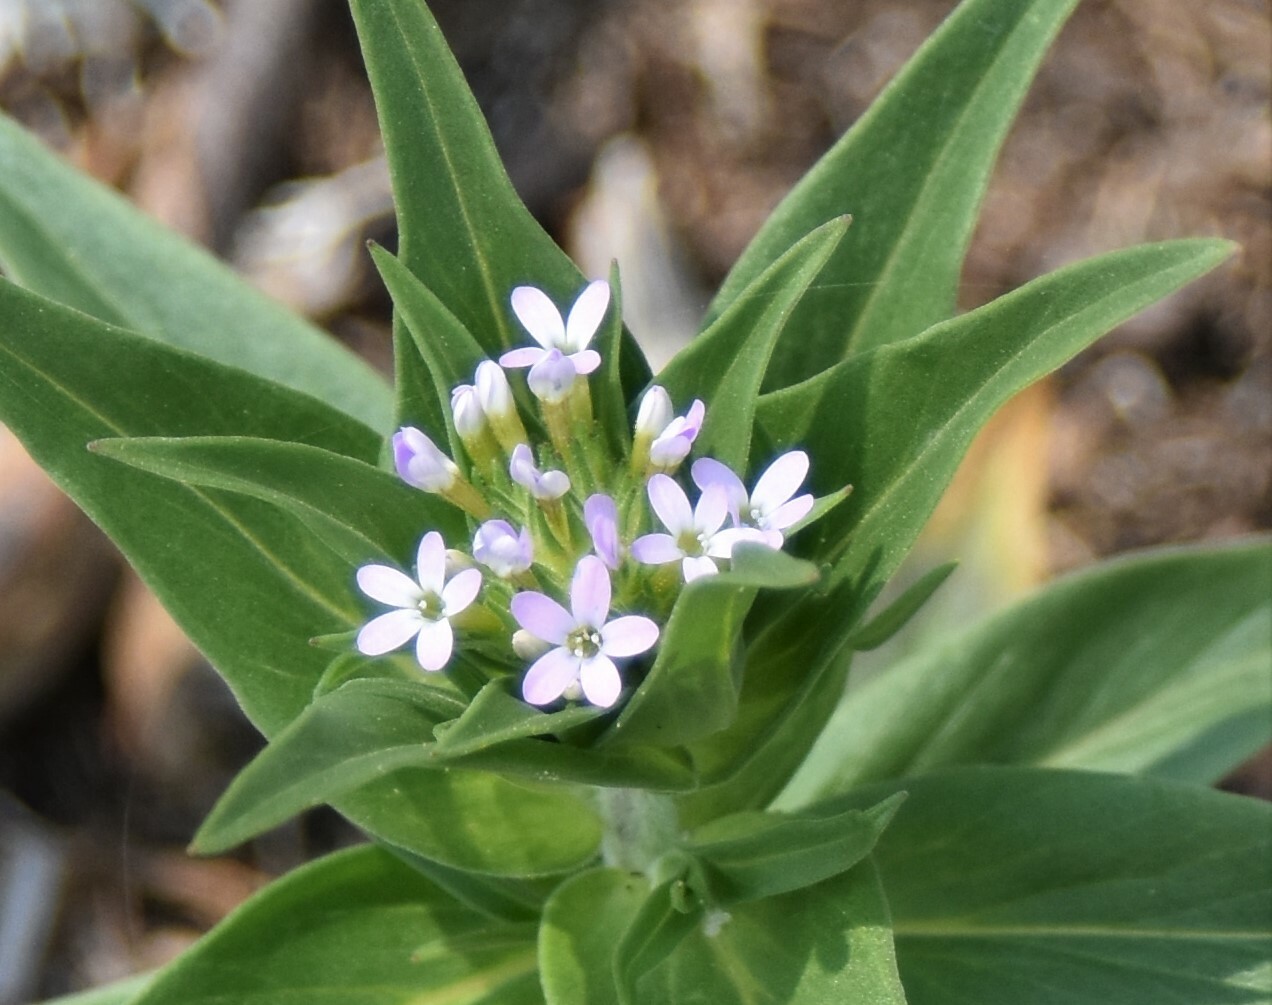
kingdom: Plantae
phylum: Tracheophyta
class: Magnoliopsida
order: Ericales
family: Polemoniaceae
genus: Collomia
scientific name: Collomia linearis
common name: Tiny trumpet
